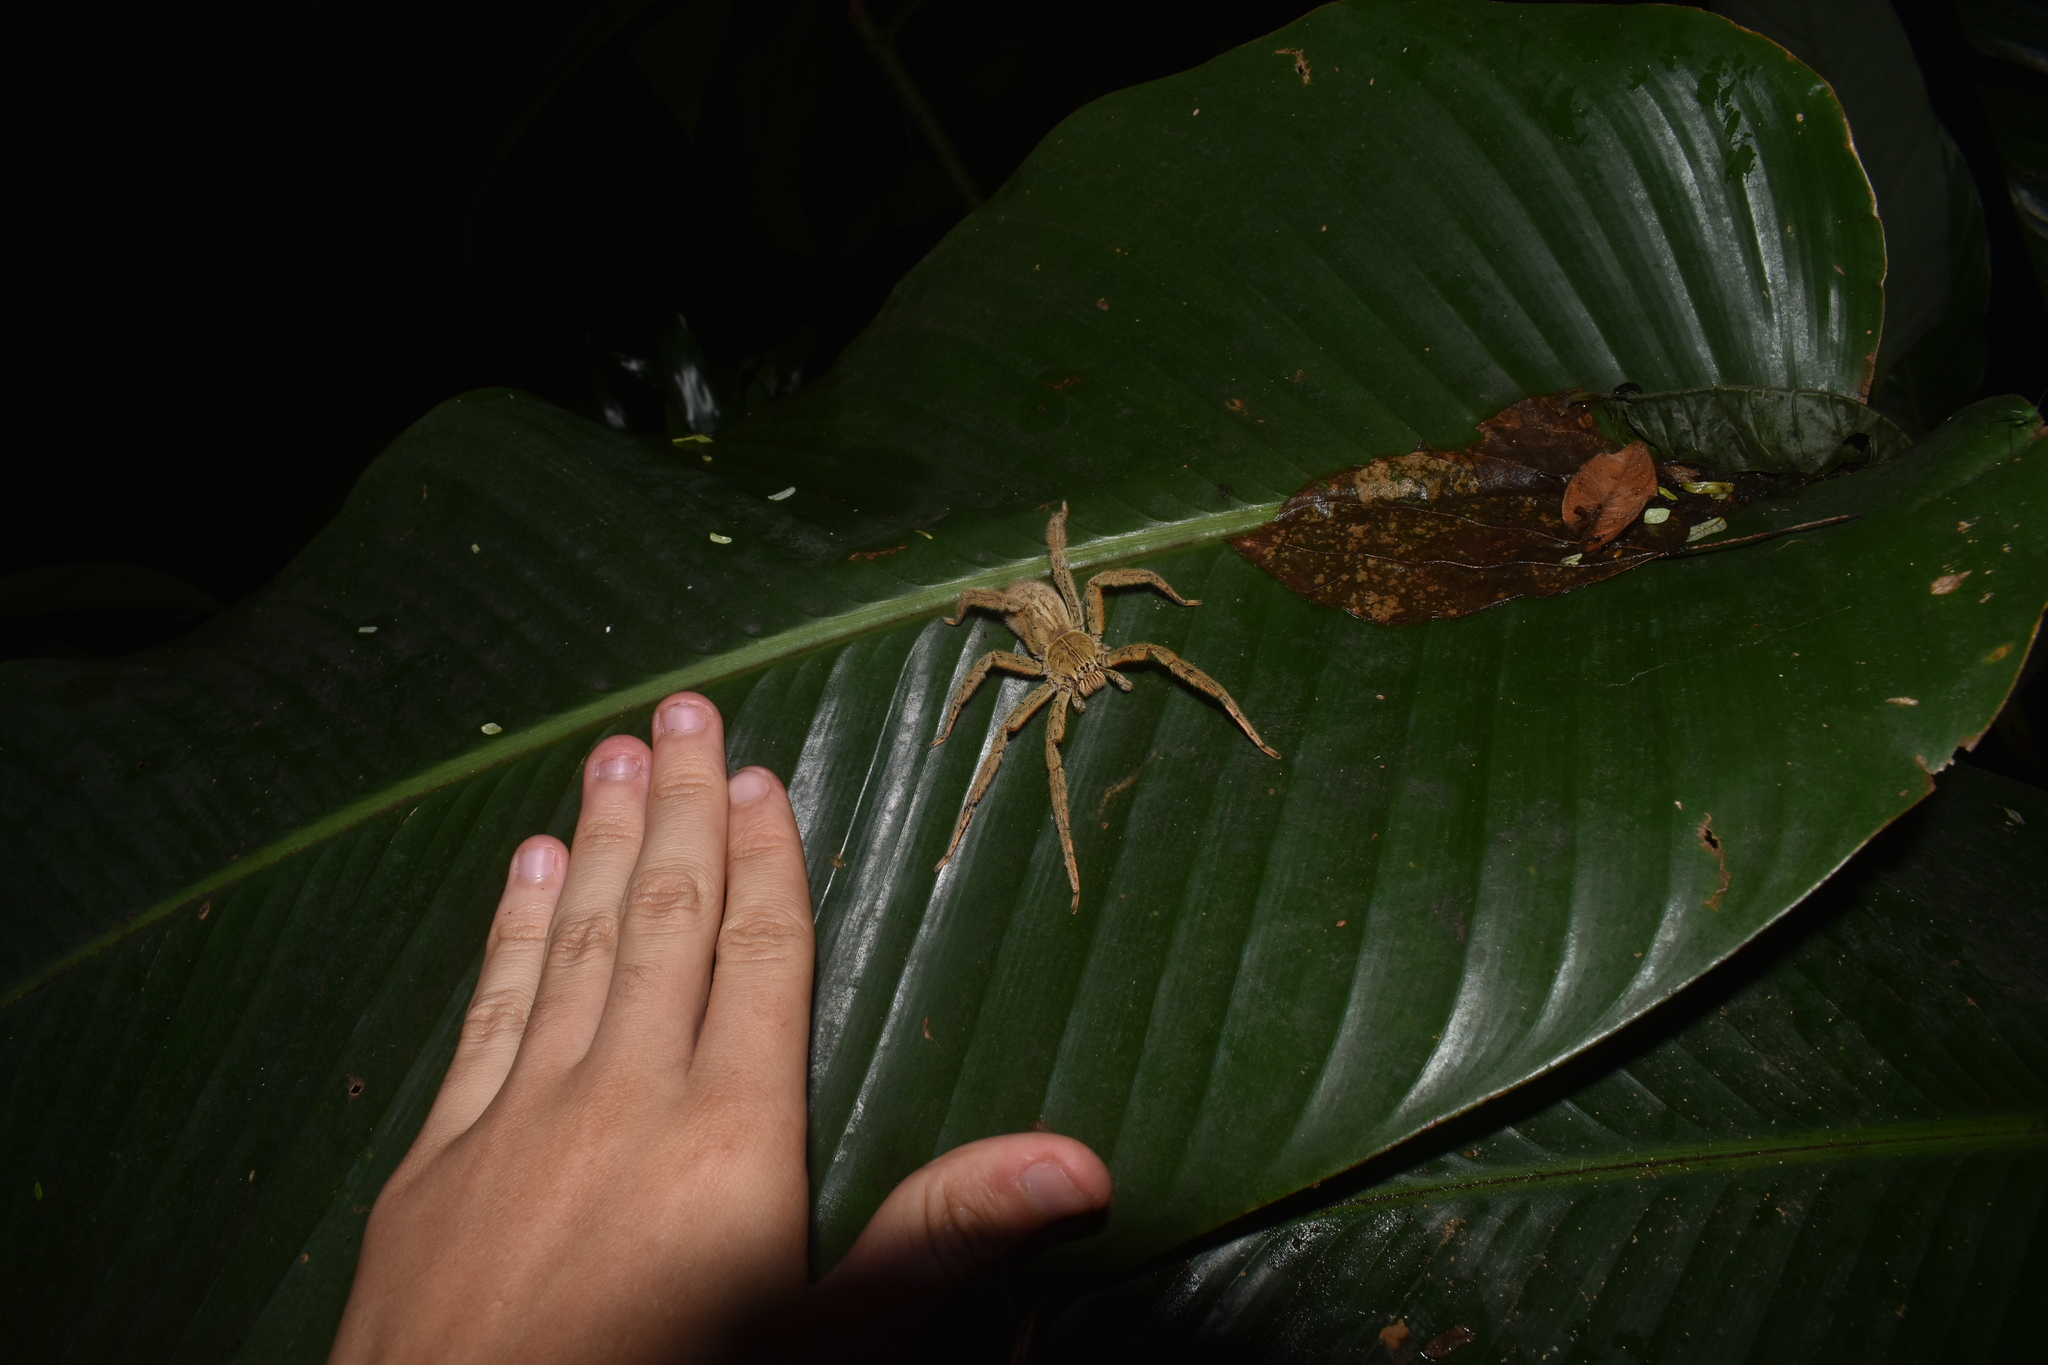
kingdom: Animalia
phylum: Arthropoda
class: Arachnida
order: Araneae
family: Trechaleidae
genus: Cupiennius
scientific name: Cupiennius coccineus
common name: Wandering spiders
